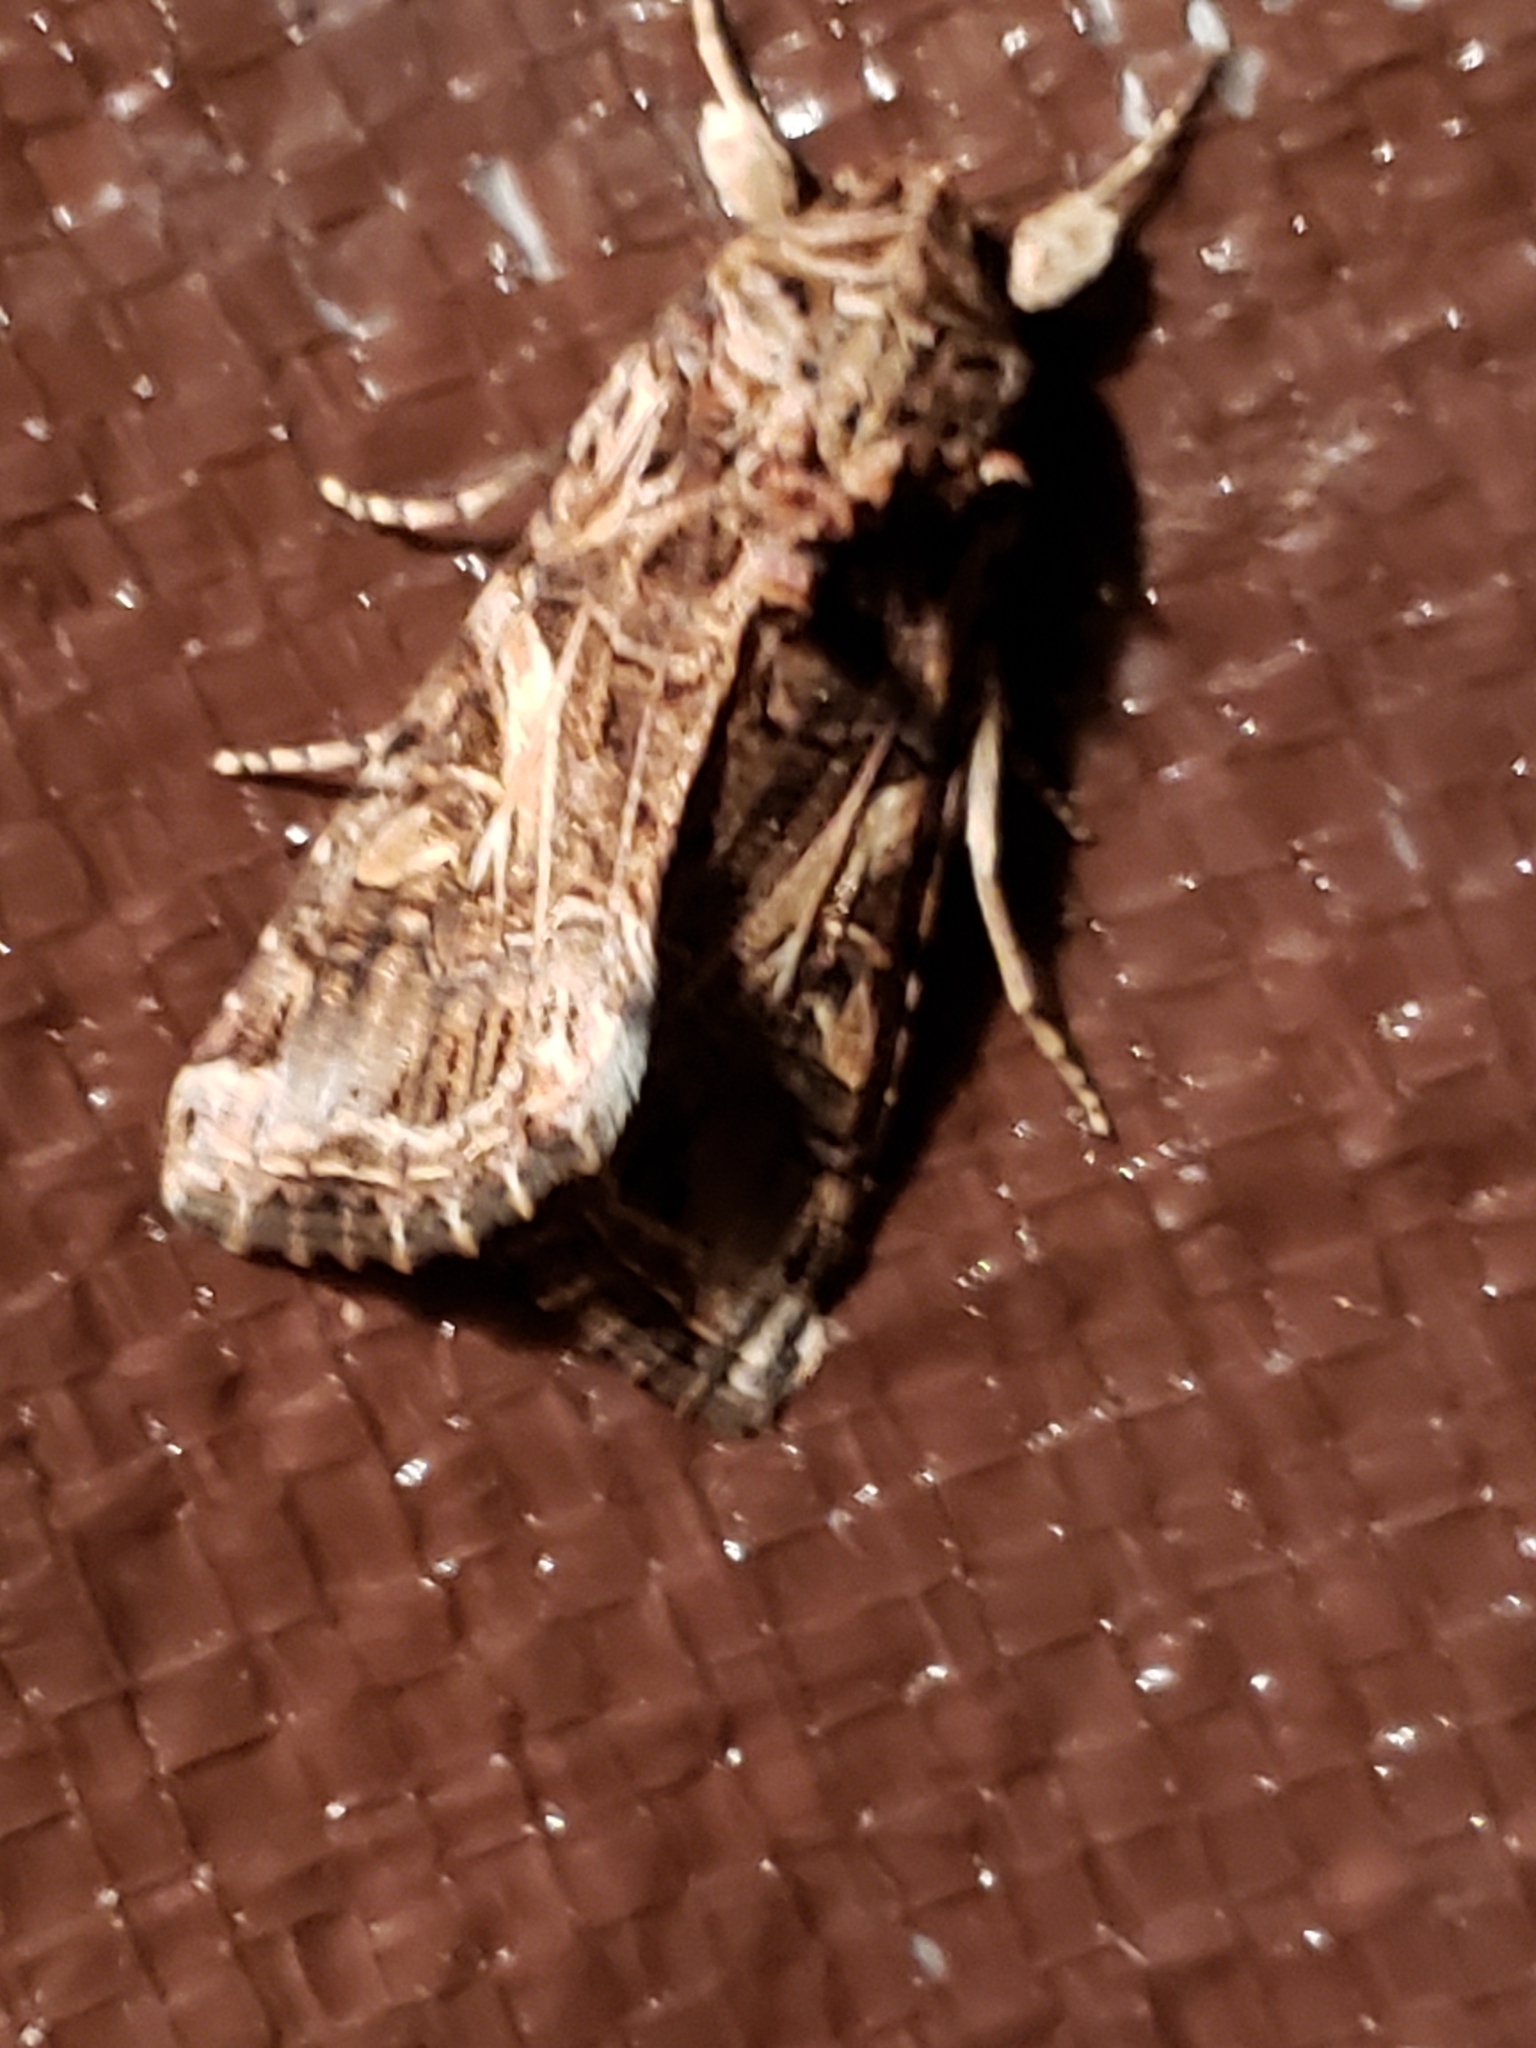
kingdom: Animalia
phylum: Arthropoda
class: Insecta
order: Lepidoptera
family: Noctuidae
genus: Spodoptera
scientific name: Spodoptera ornithogalli
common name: Yellow-striped armyworm
